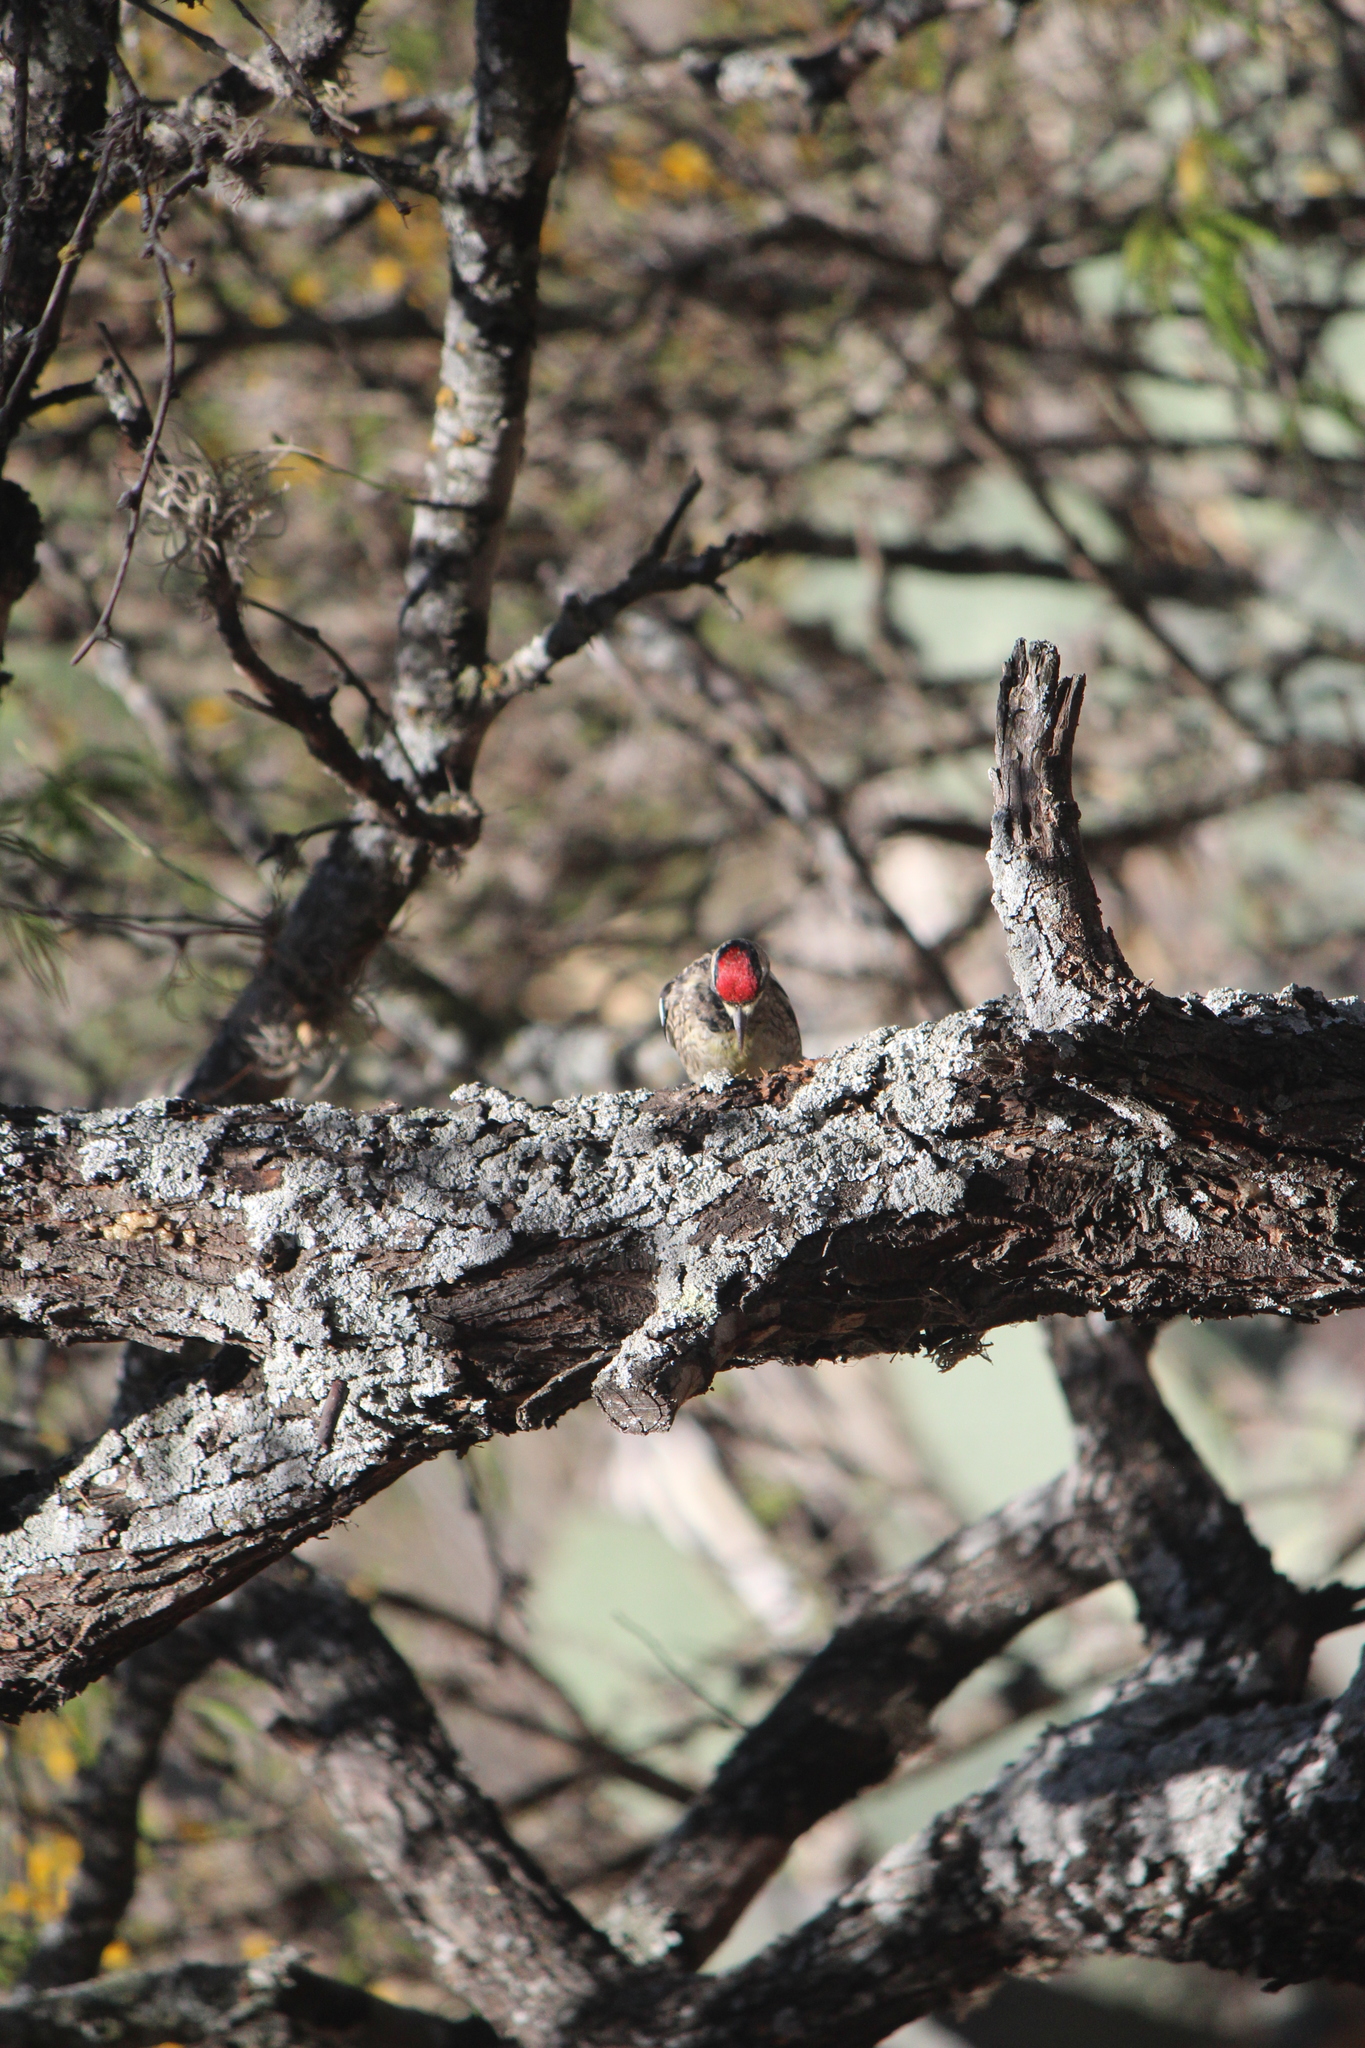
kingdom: Animalia
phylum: Chordata
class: Aves
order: Piciformes
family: Picidae
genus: Sphyrapicus
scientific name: Sphyrapicus varius
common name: Yellow-bellied sapsucker
